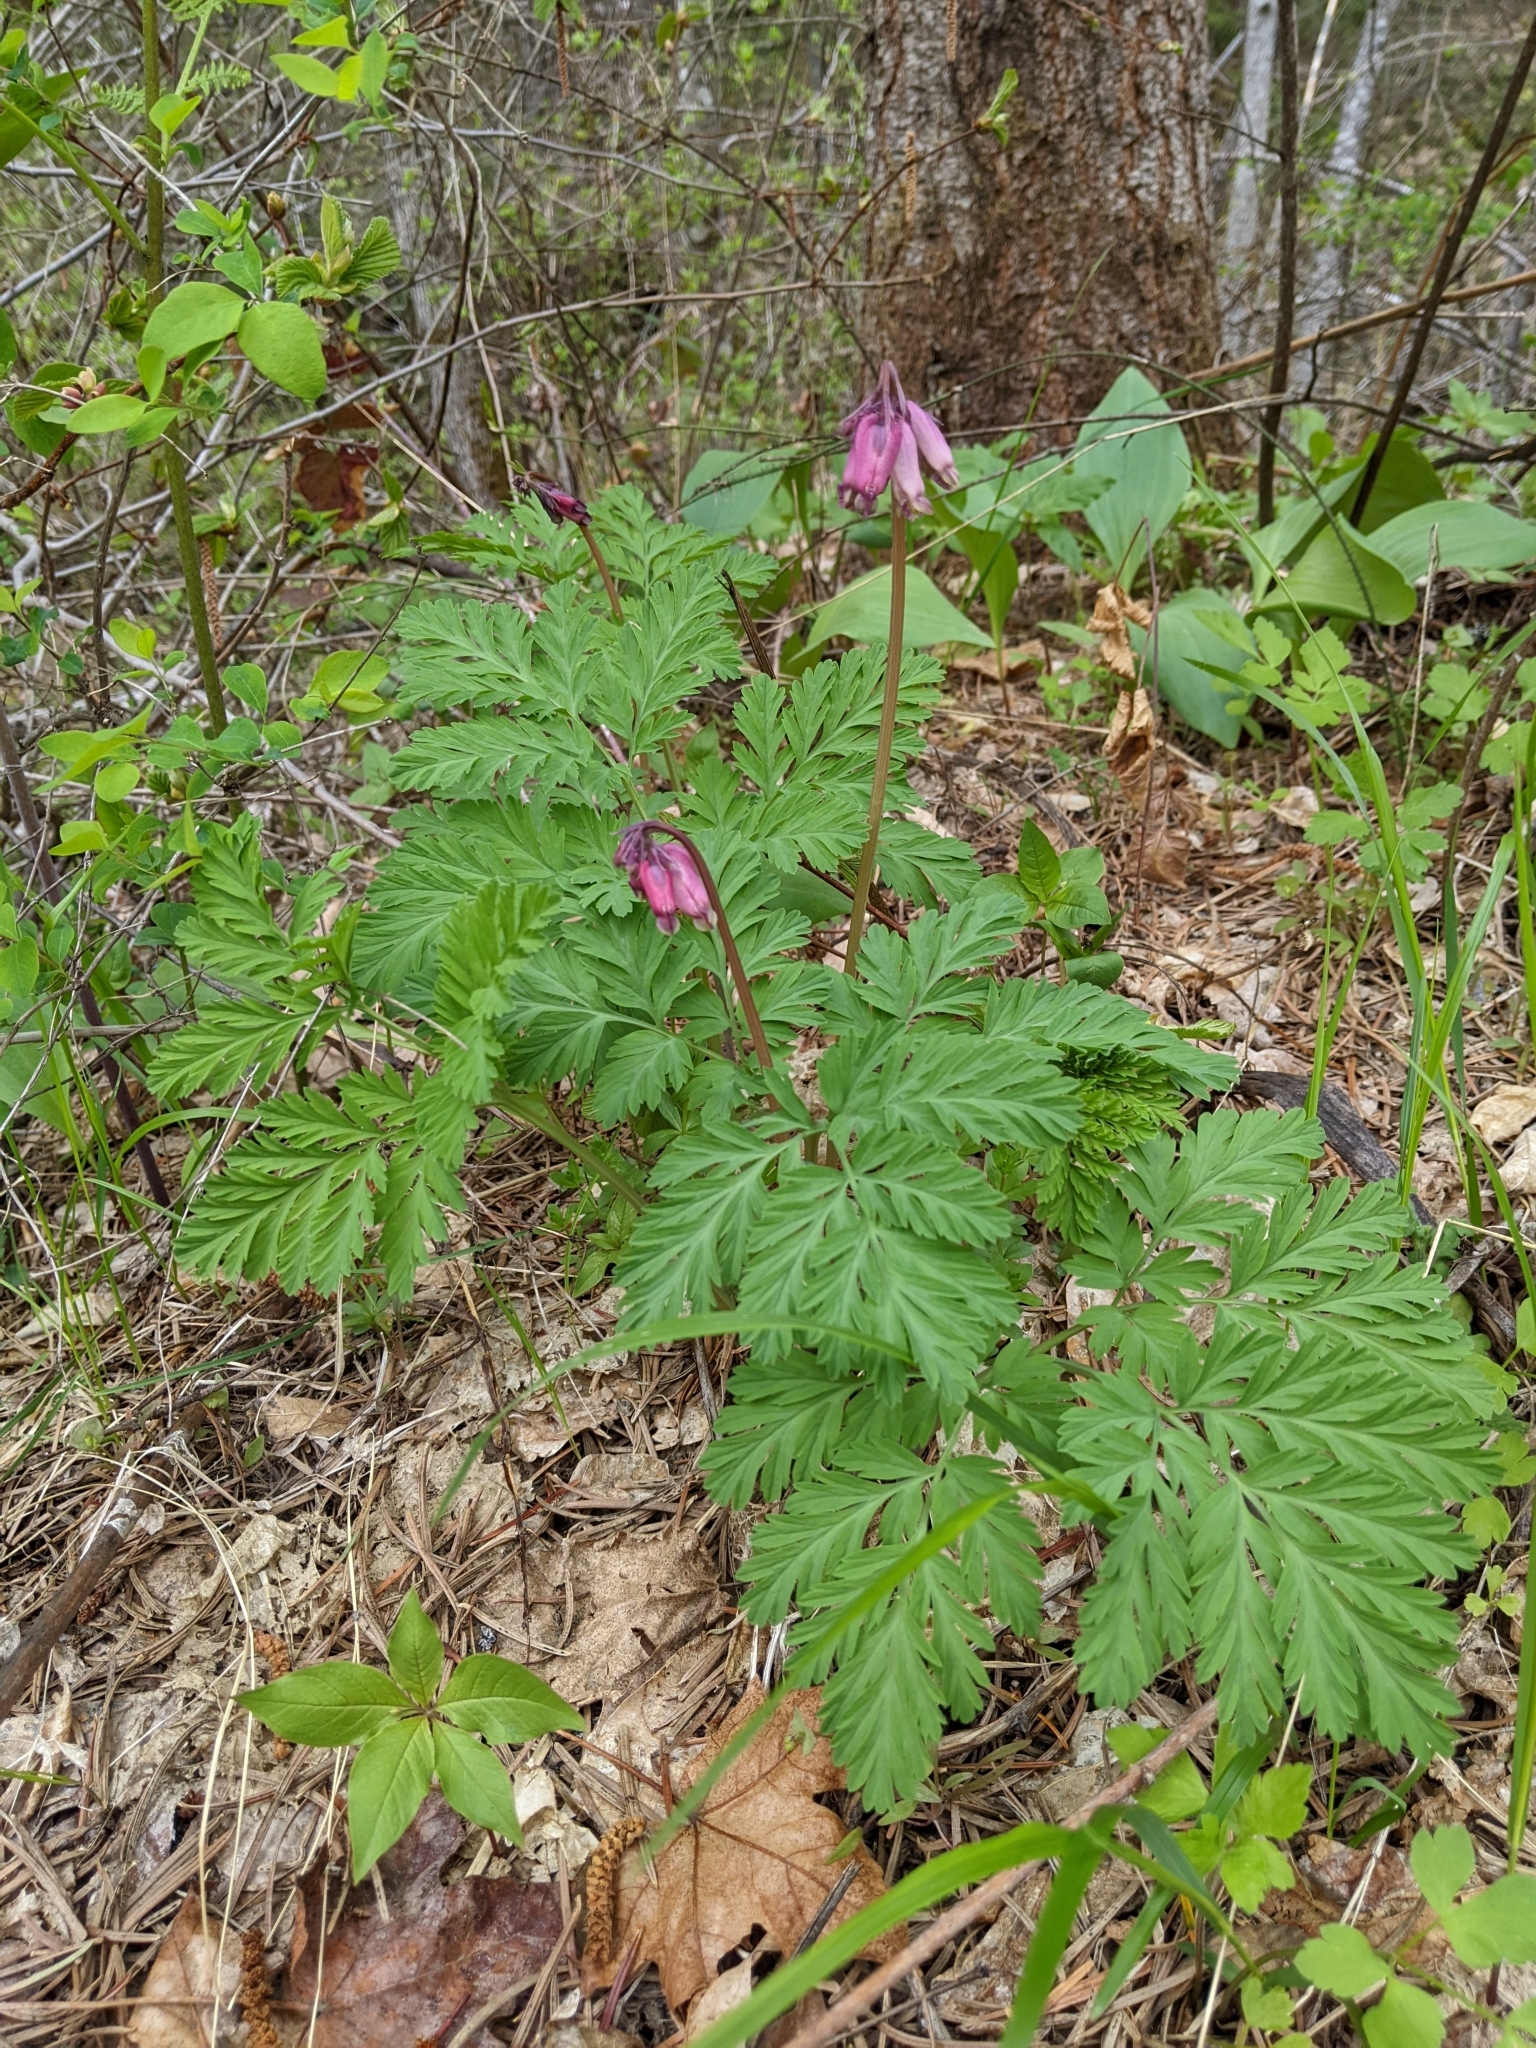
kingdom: Plantae
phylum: Tracheophyta
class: Magnoliopsida
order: Ranunculales
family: Papaveraceae
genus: Dicentra
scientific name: Dicentra formosa
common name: Bleeding-heart
